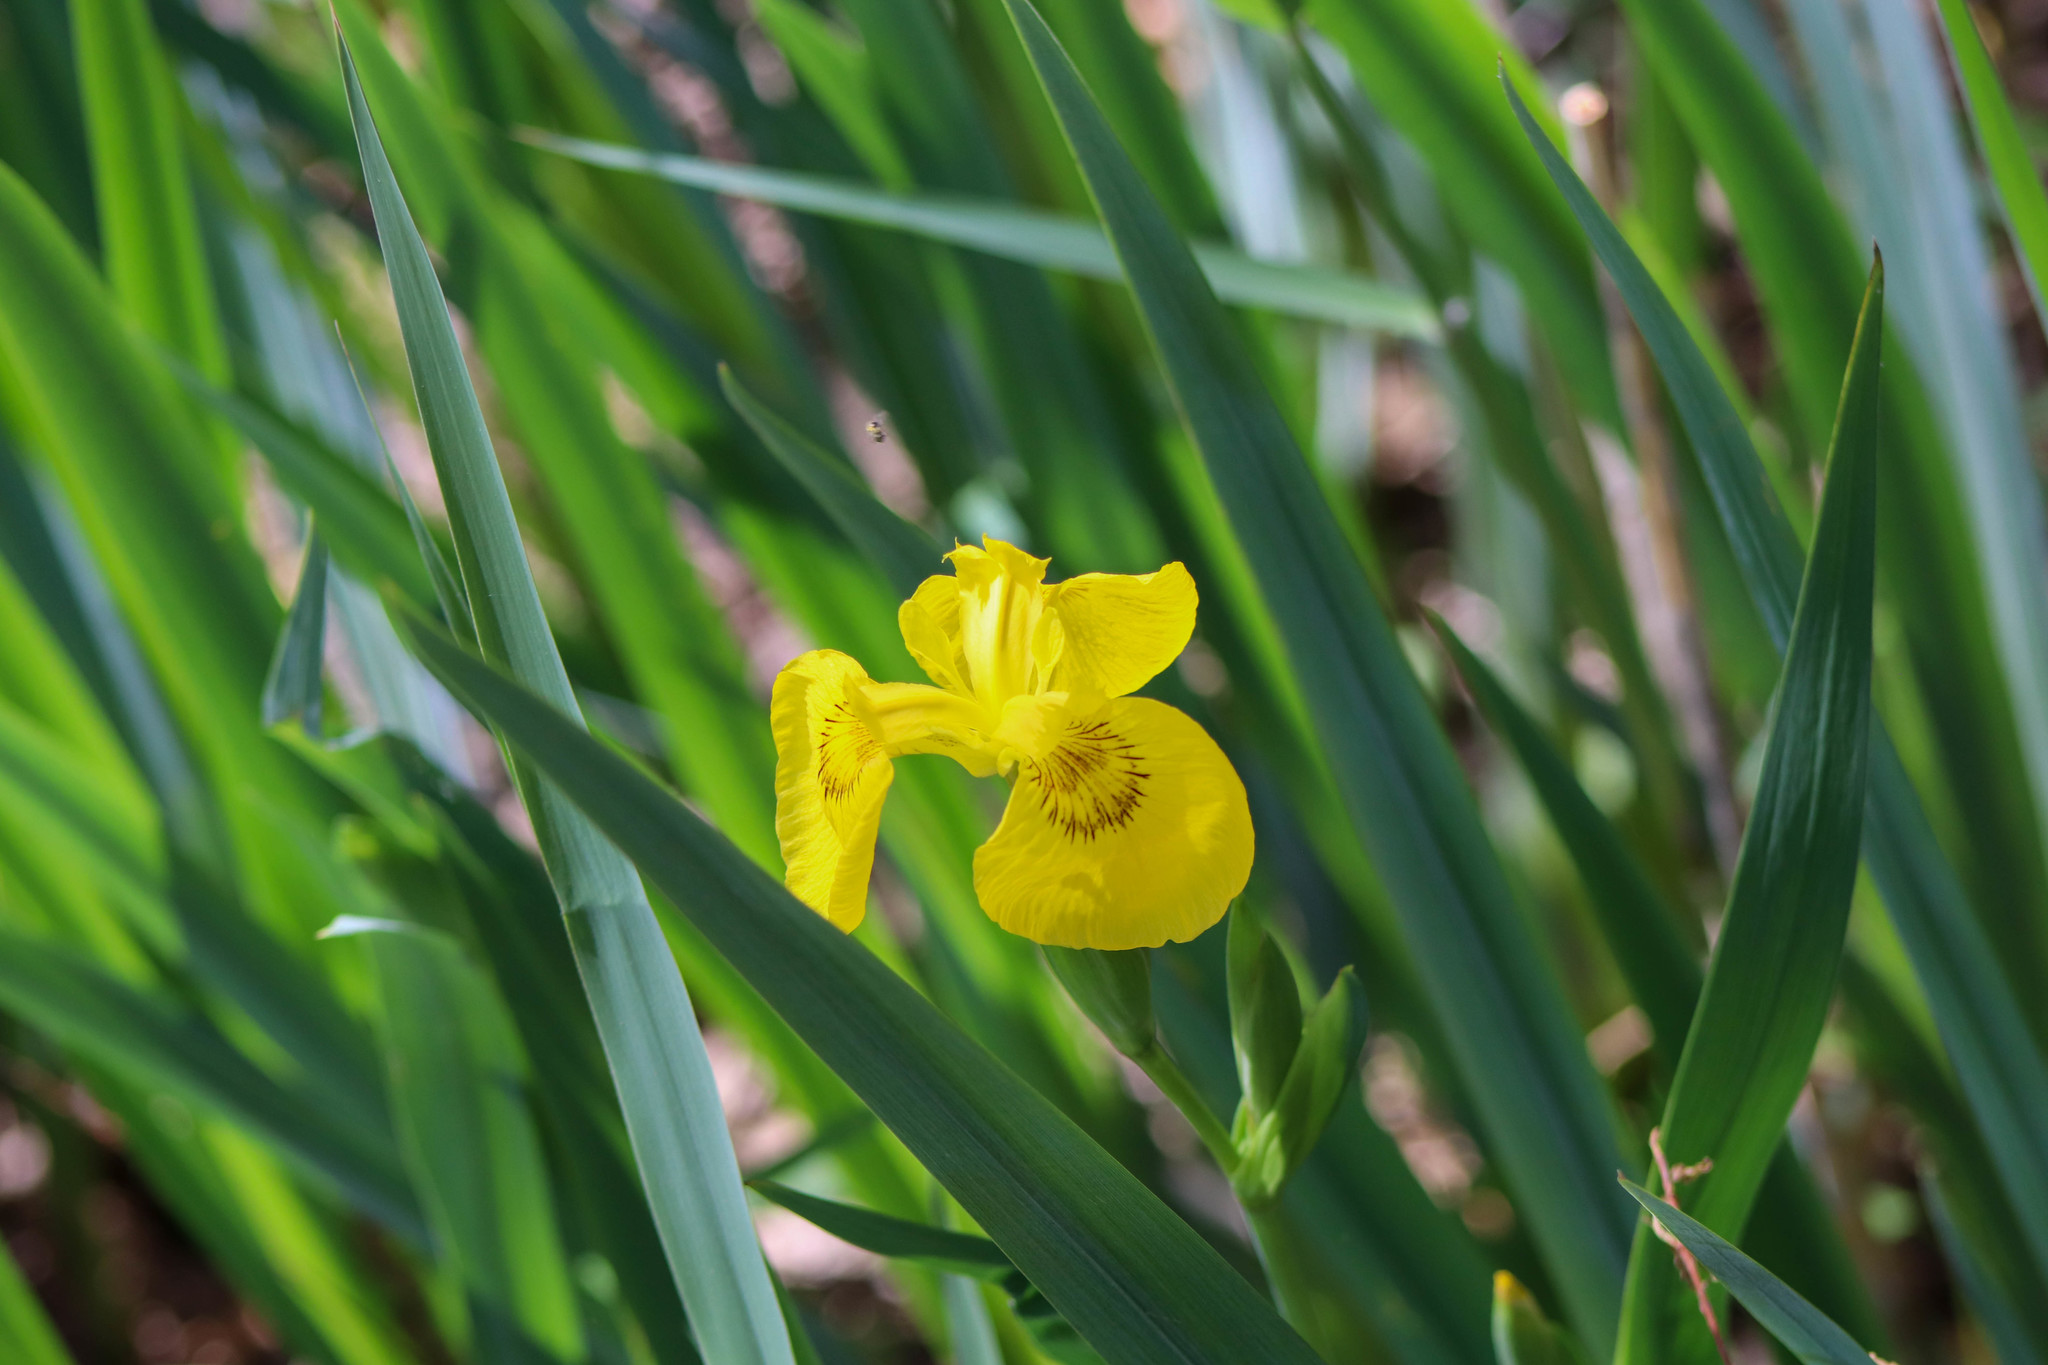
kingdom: Plantae
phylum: Tracheophyta
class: Liliopsida
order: Asparagales
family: Iridaceae
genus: Iris
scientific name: Iris pseudacorus
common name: Yellow flag
